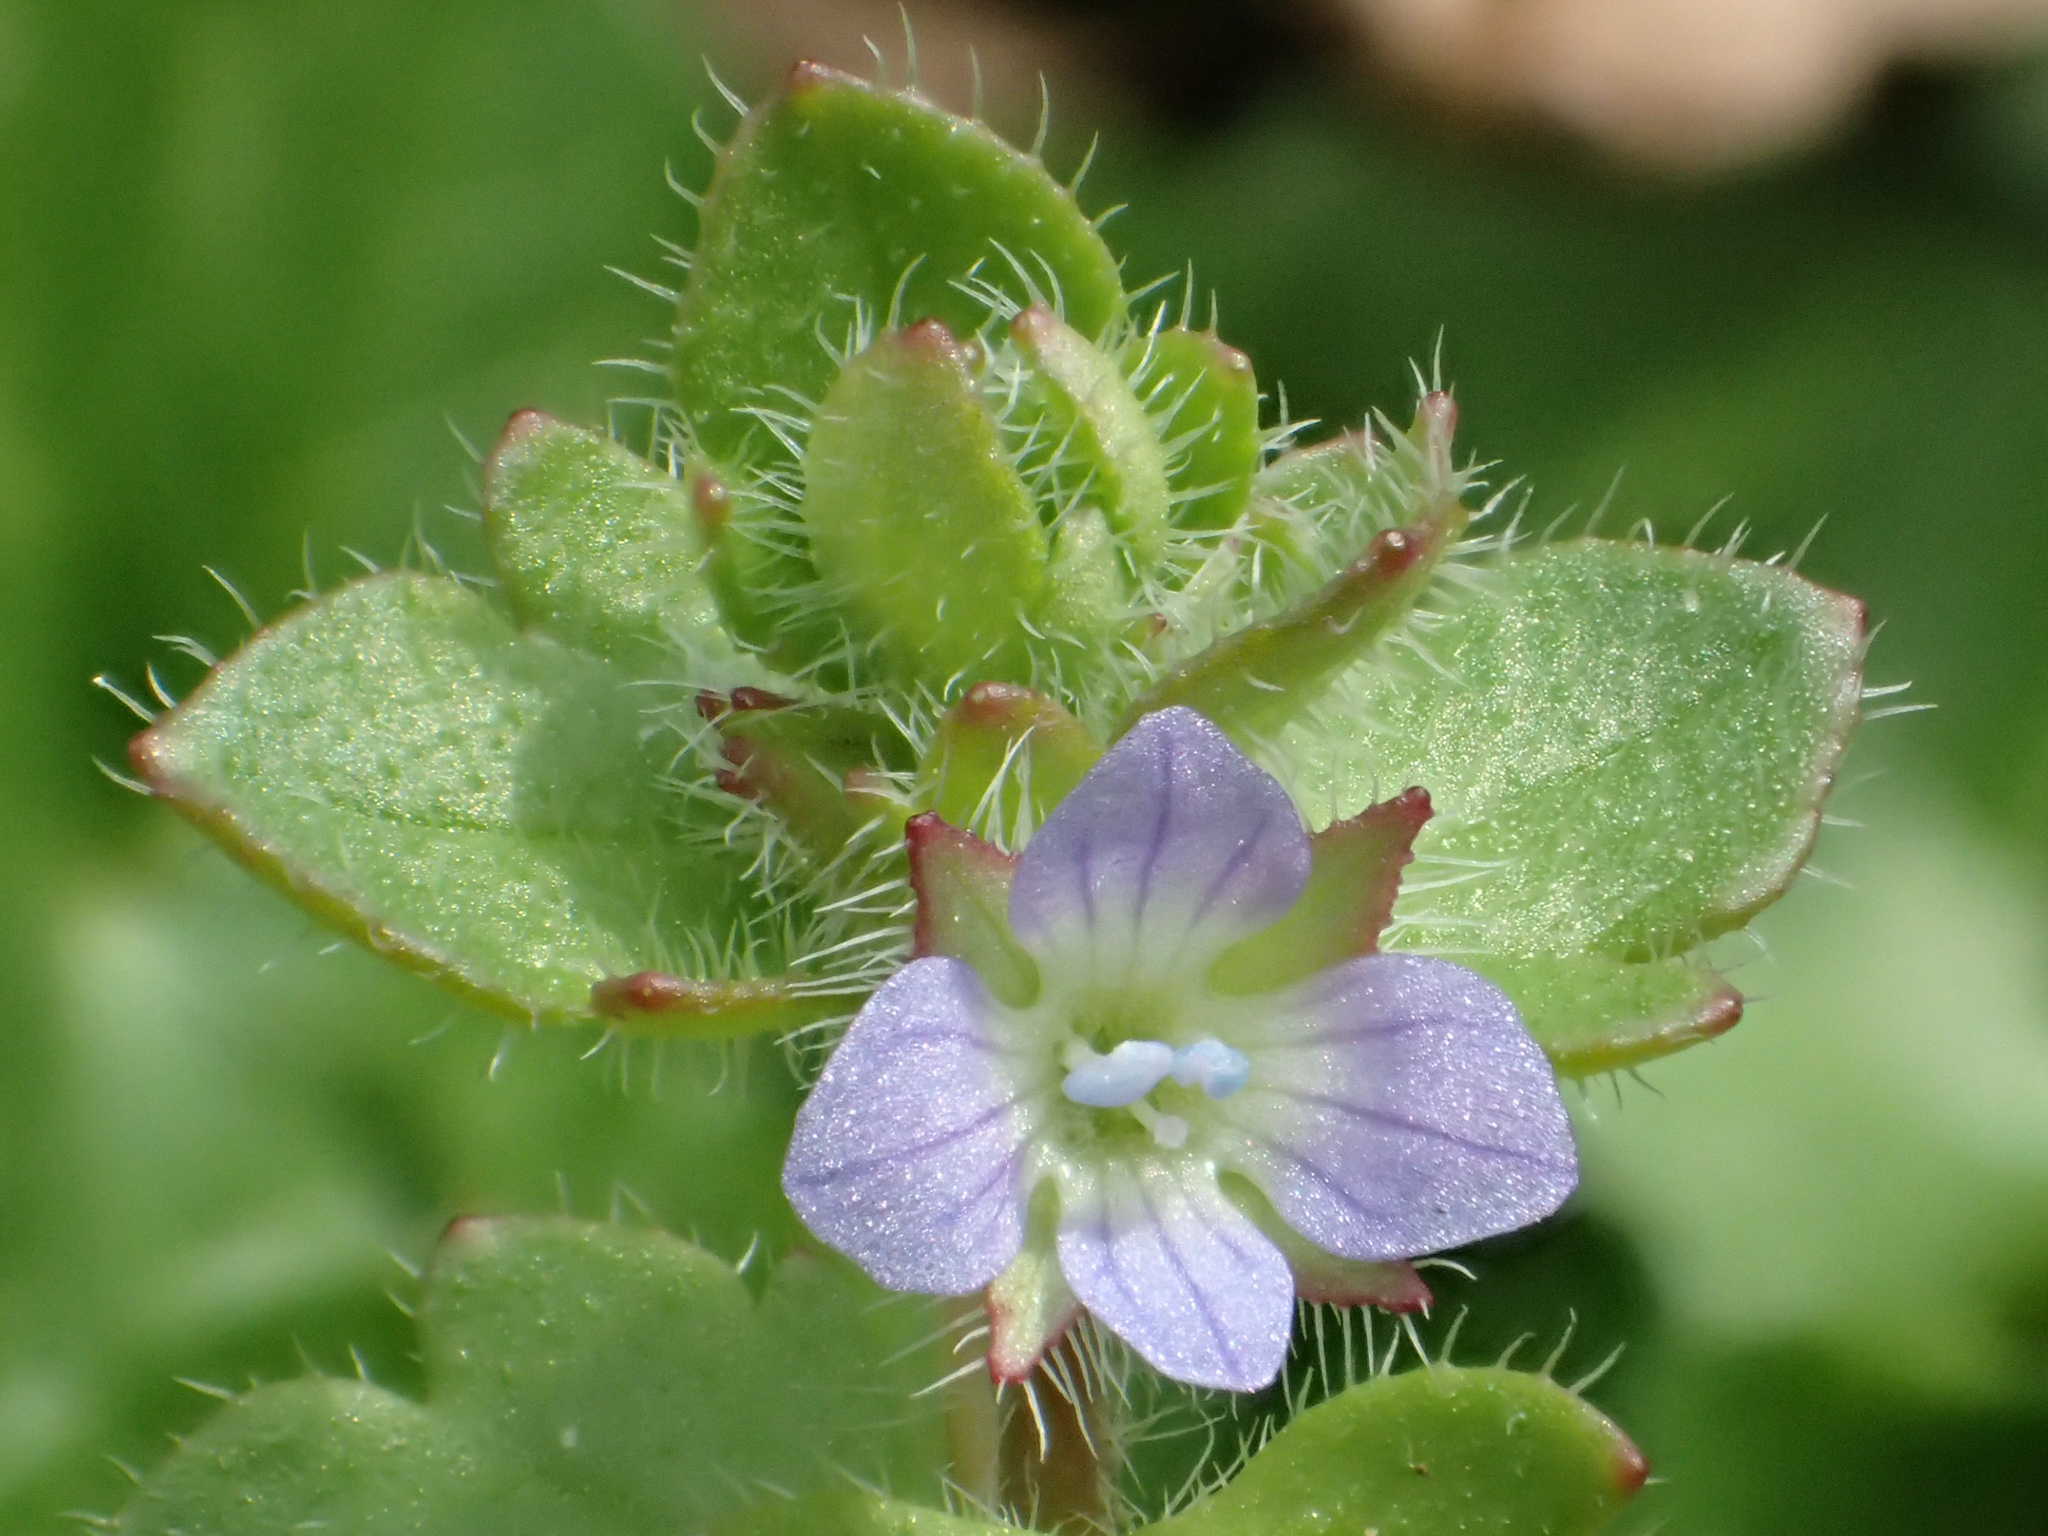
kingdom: Plantae
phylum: Tracheophyta
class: Magnoliopsida
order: Lamiales
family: Plantaginaceae
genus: Veronica
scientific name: Veronica hederifolia
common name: Ivy-leaved speedwell
